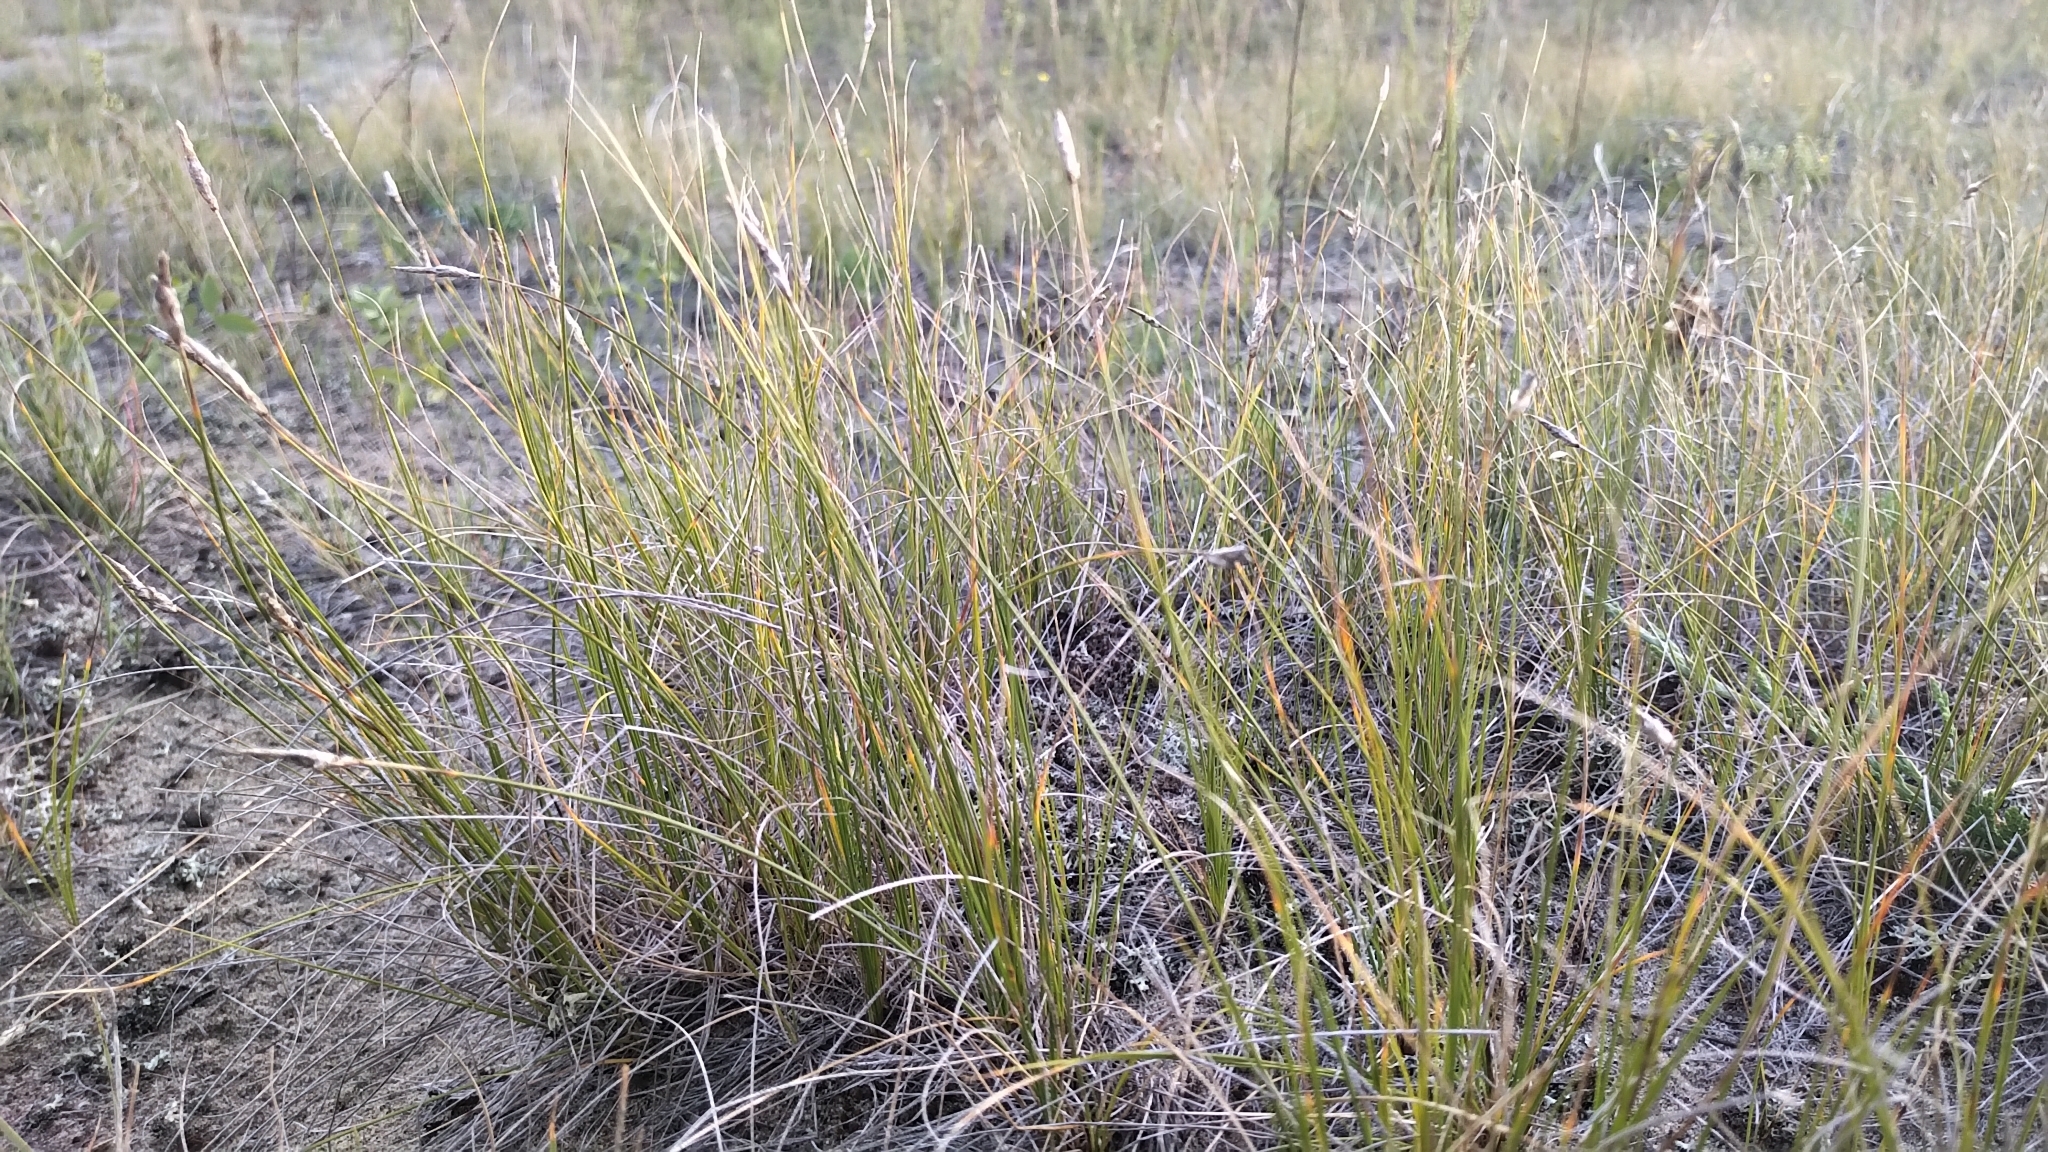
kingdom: Plantae
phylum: Tracheophyta
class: Liliopsida
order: Poales
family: Cyperaceae
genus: Carex
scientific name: Carex filifolia
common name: Threadleaf sedge
